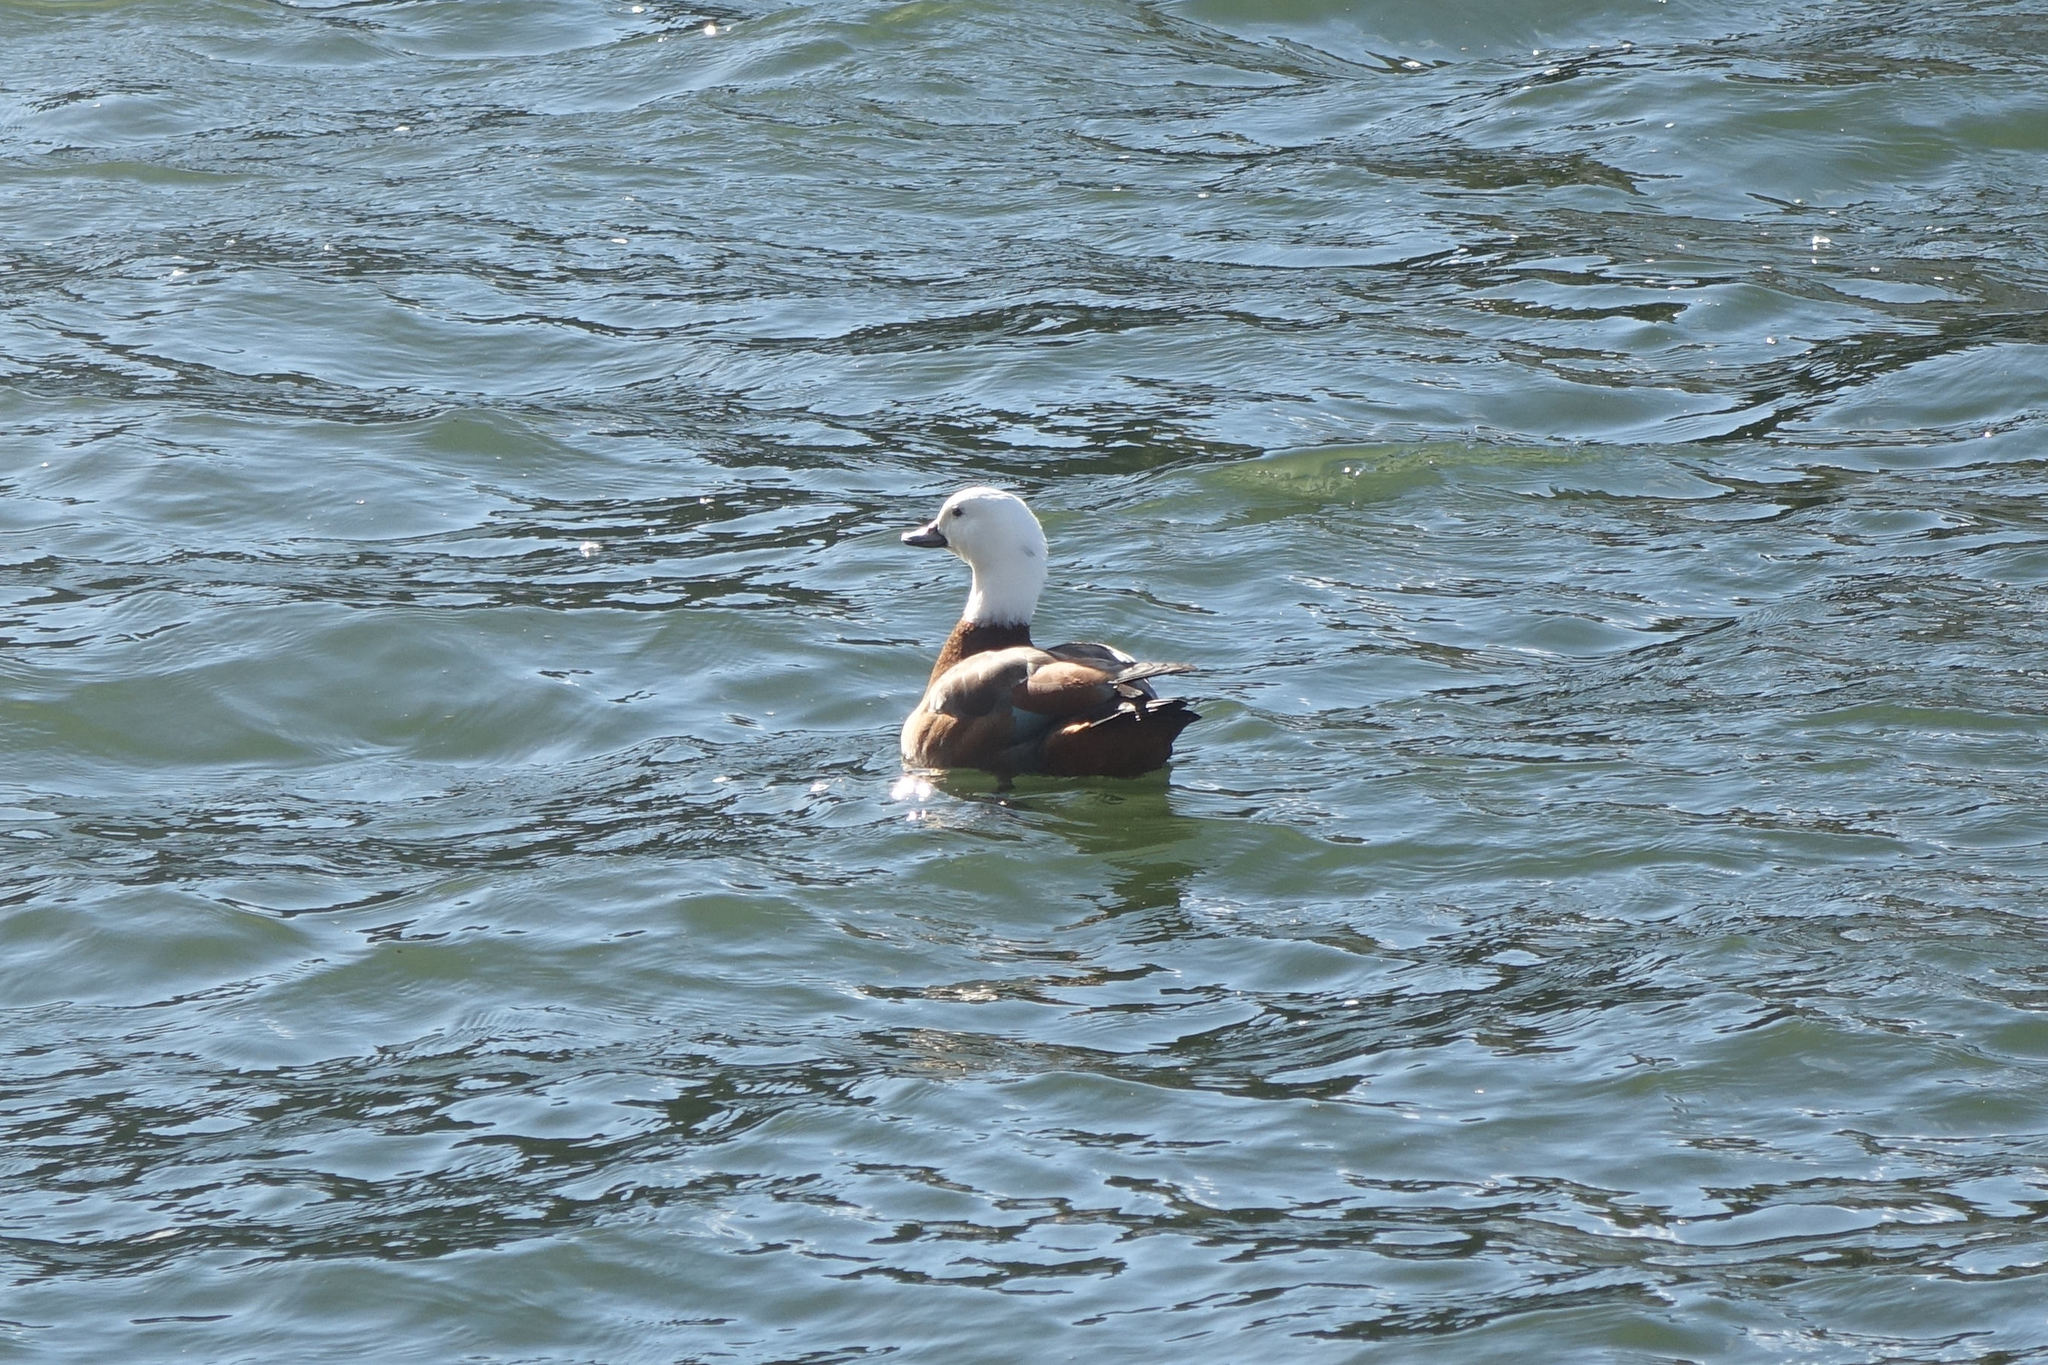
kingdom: Animalia
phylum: Chordata
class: Aves
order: Anseriformes
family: Anatidae
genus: Tadorna
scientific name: Tadorna variegata
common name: Paradise shelduck
